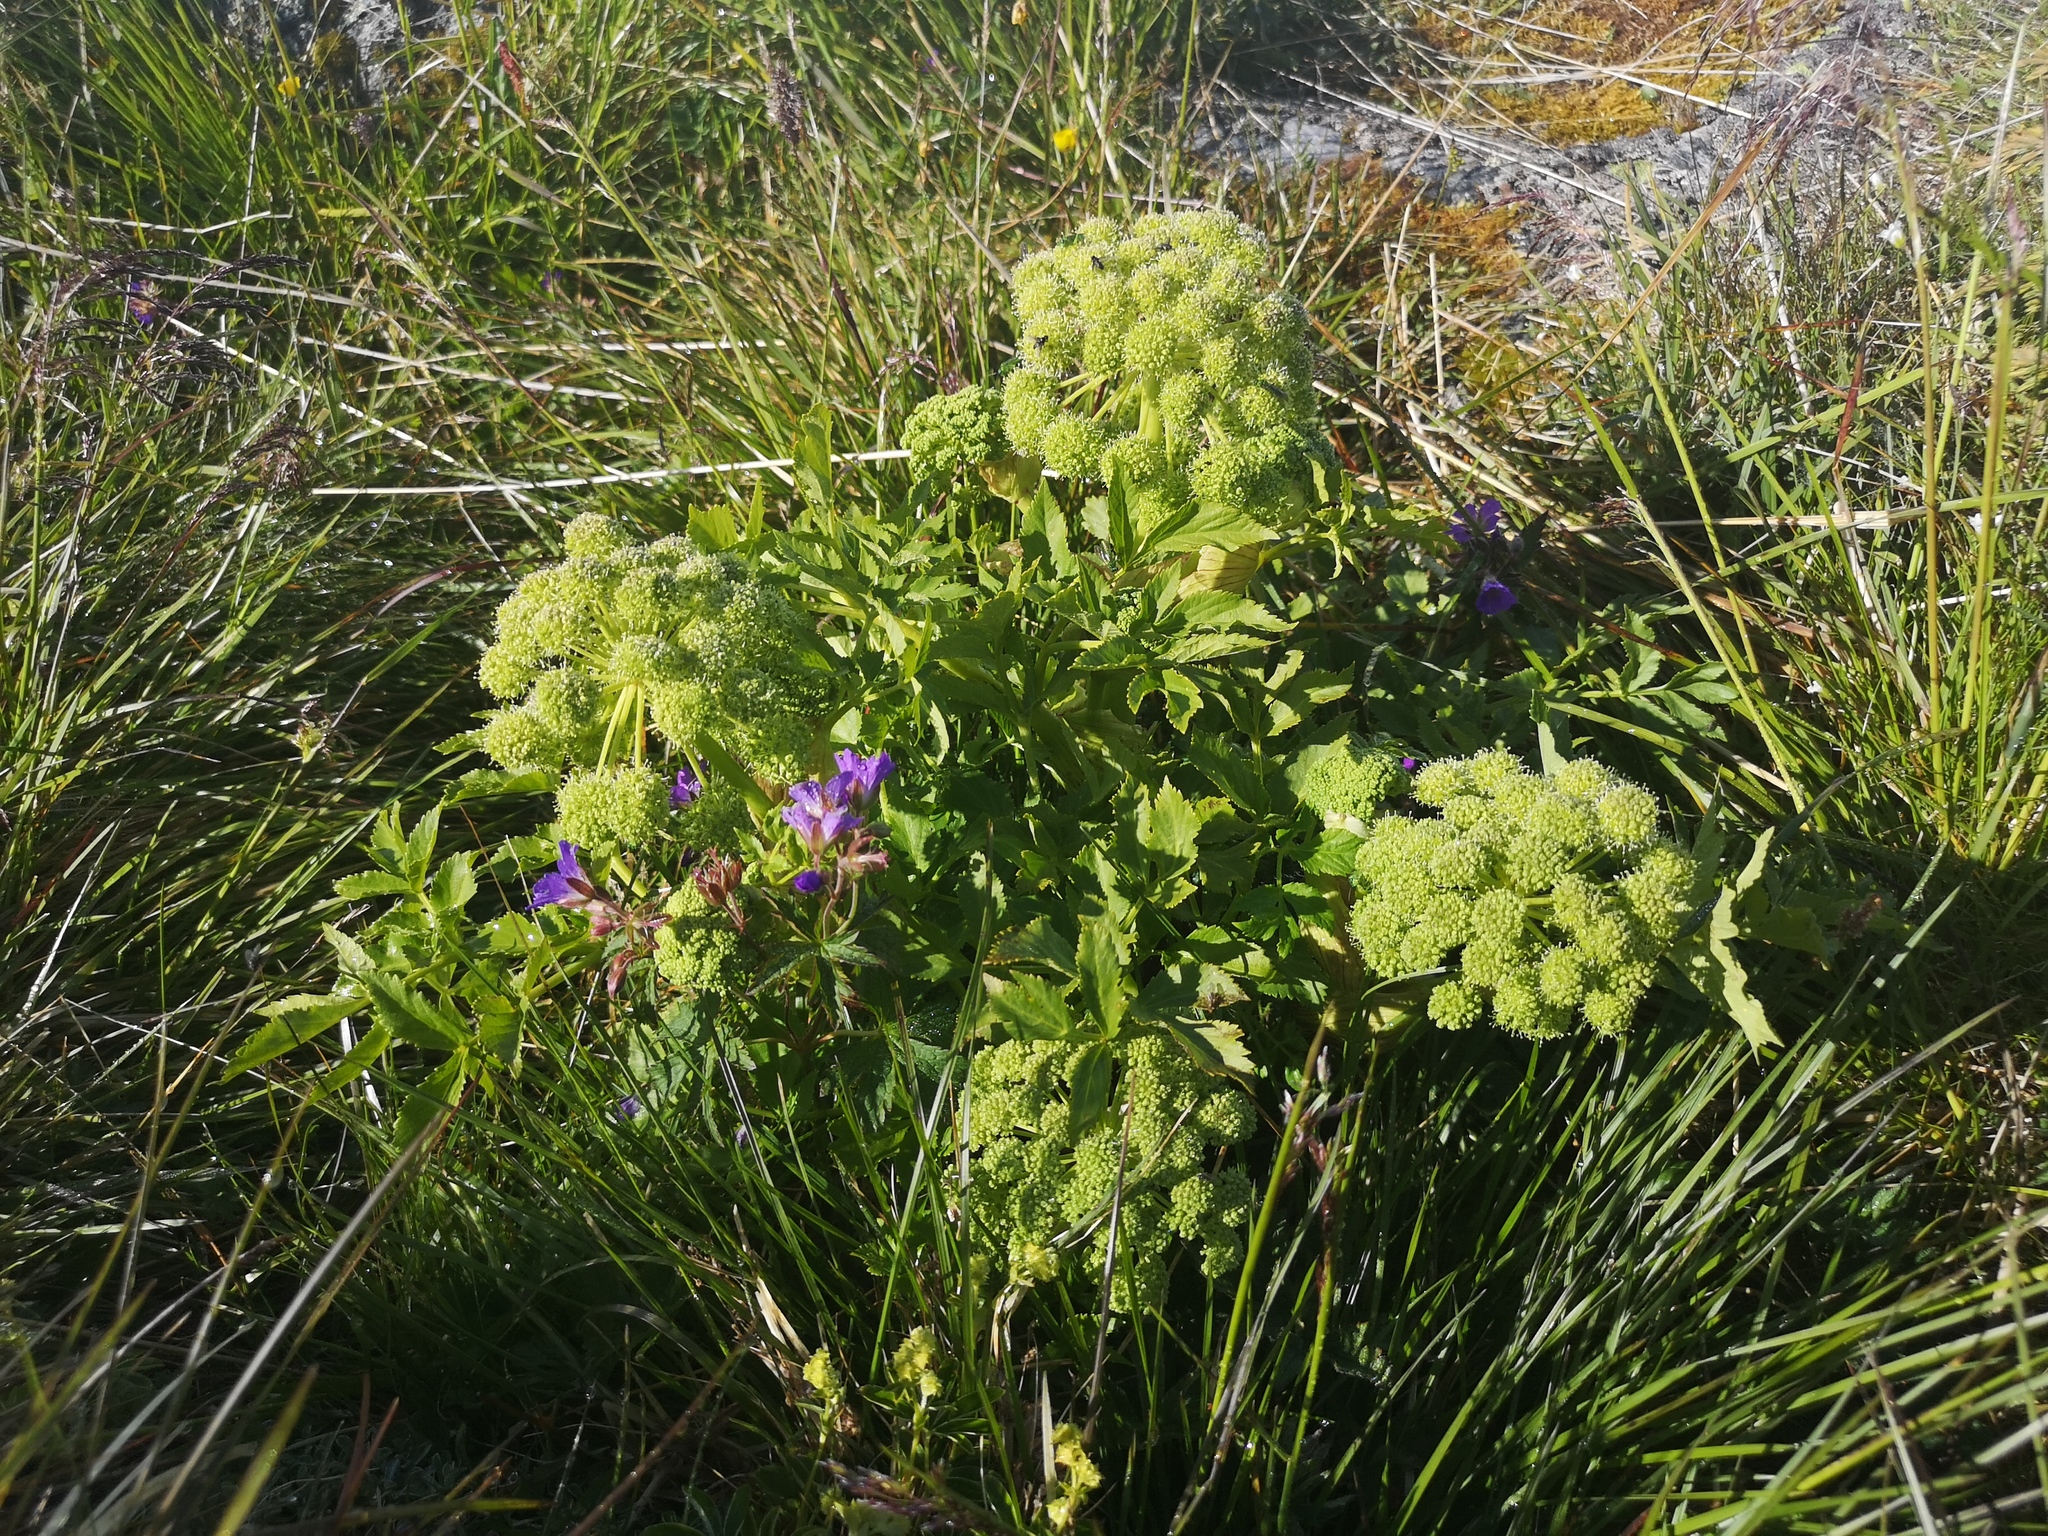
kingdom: Plantae
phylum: Tracheophyta
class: Magnoliopsida
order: Apiales
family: Apiaceae
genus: Angelica
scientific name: Angelica archangelica
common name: Garden angelica
